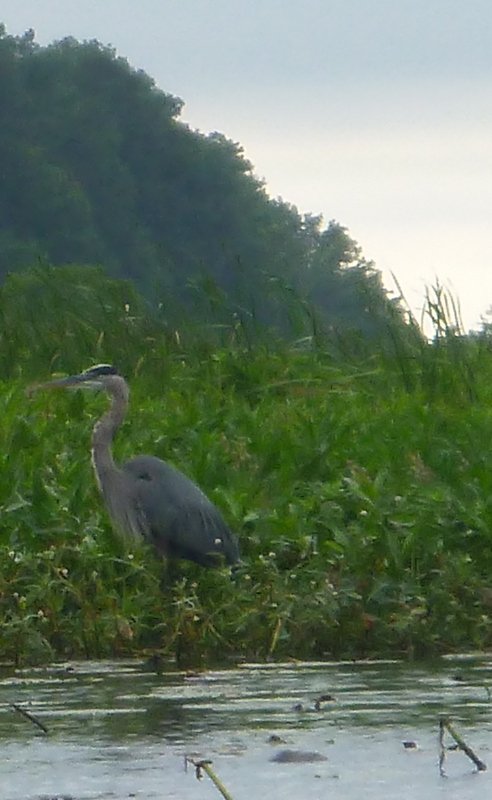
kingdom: Animalia
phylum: Chordata
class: Aves
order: Pelecaniformes
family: Ardeidae
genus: Ardea
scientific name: Ardea herodias
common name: Great blue heron
